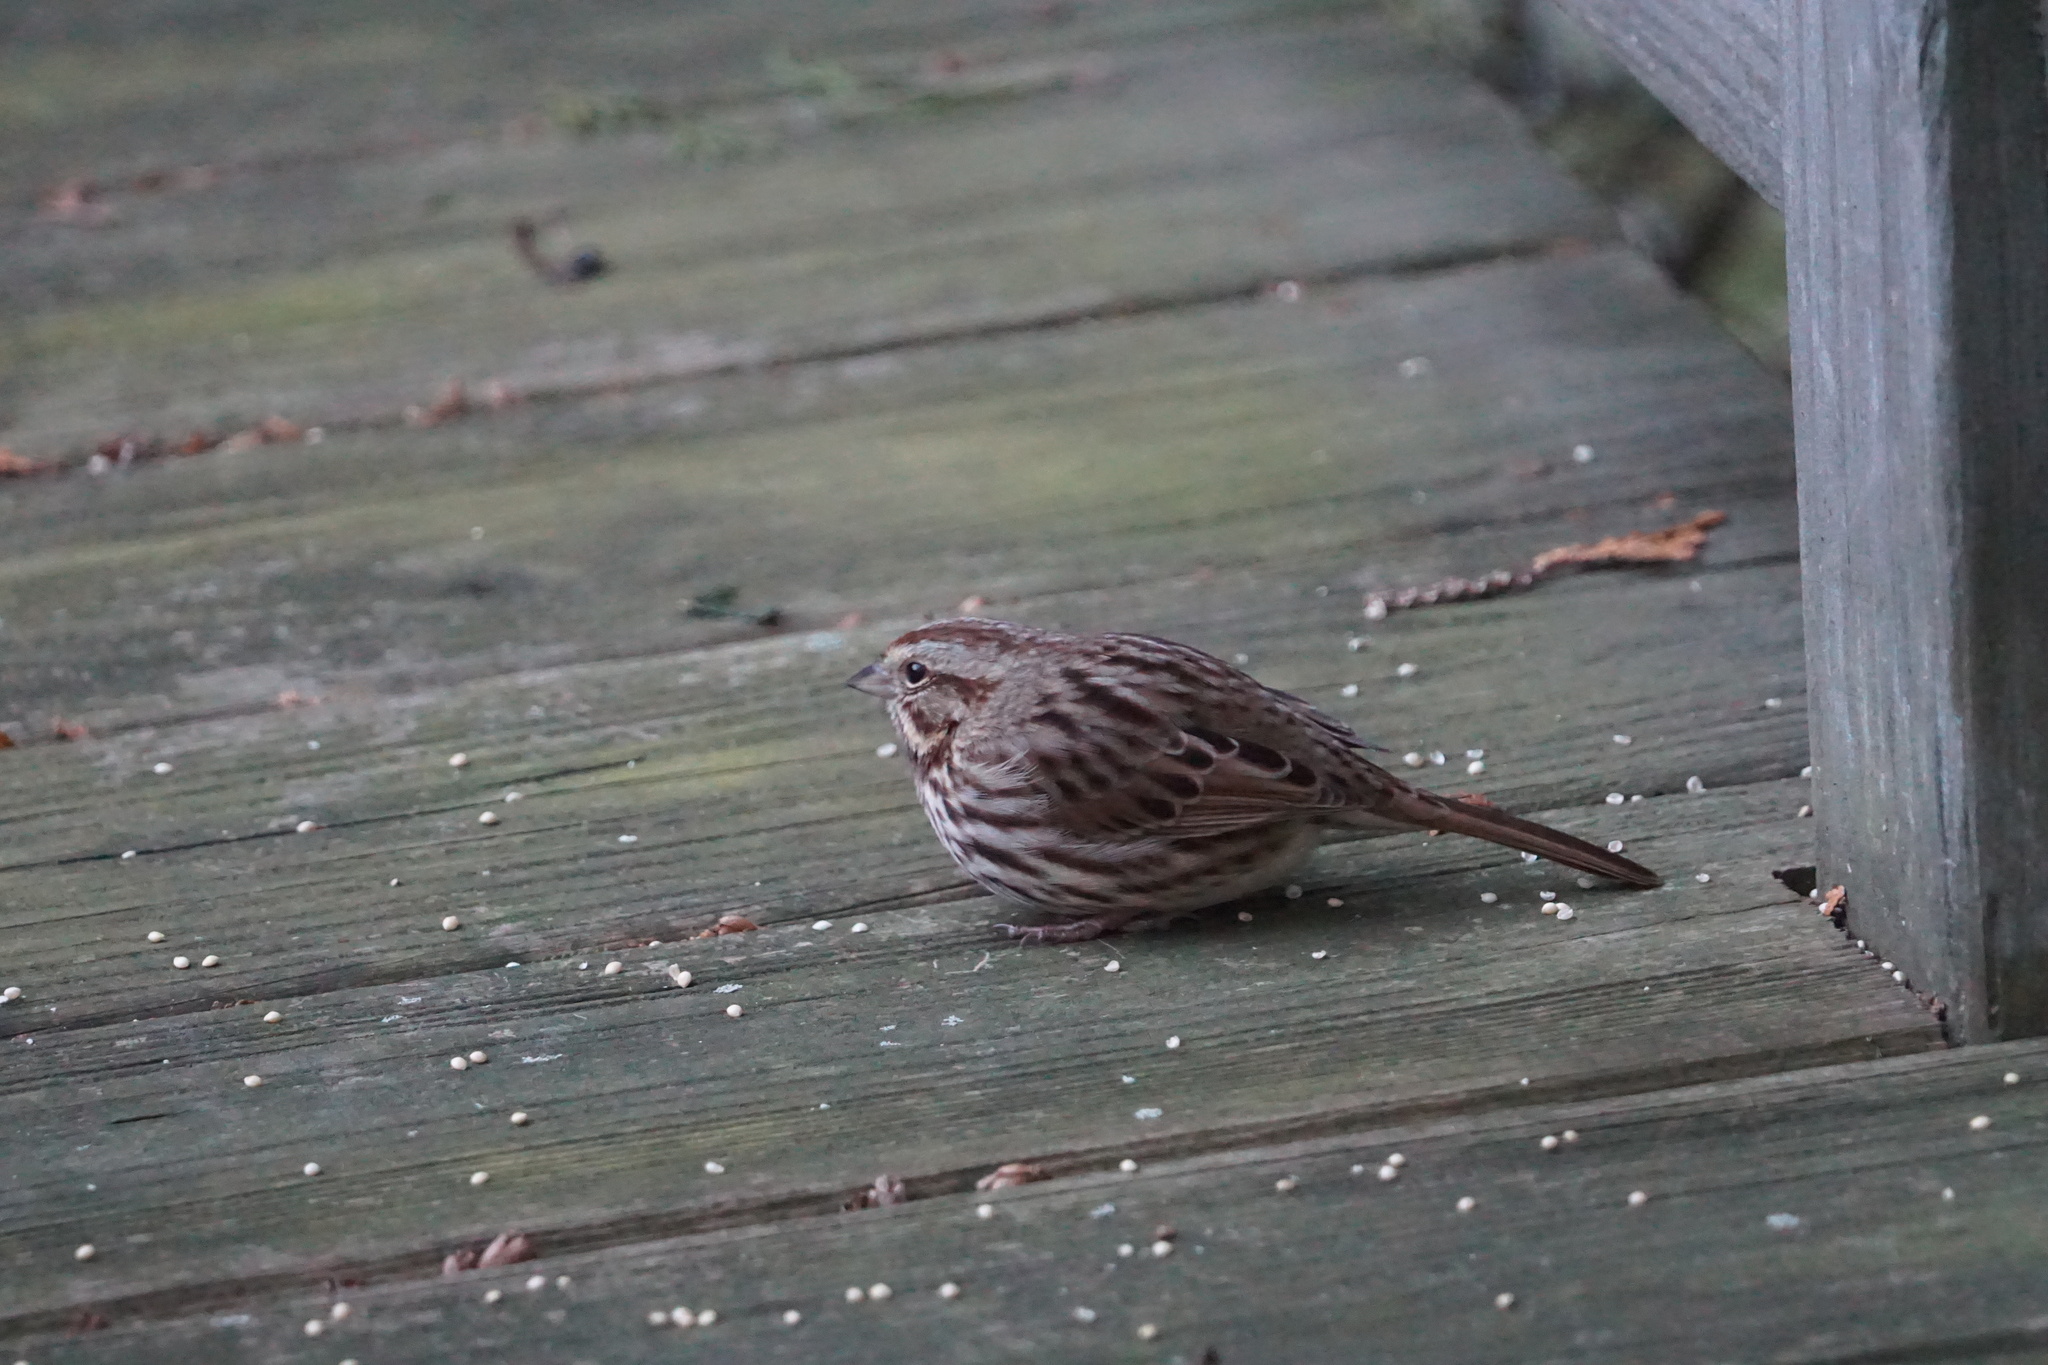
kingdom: Animalia
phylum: Chordata
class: Aves
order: Passeriformes
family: Passerellidae
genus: Melospiza
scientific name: Melospiza melodia
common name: Song sparrow
